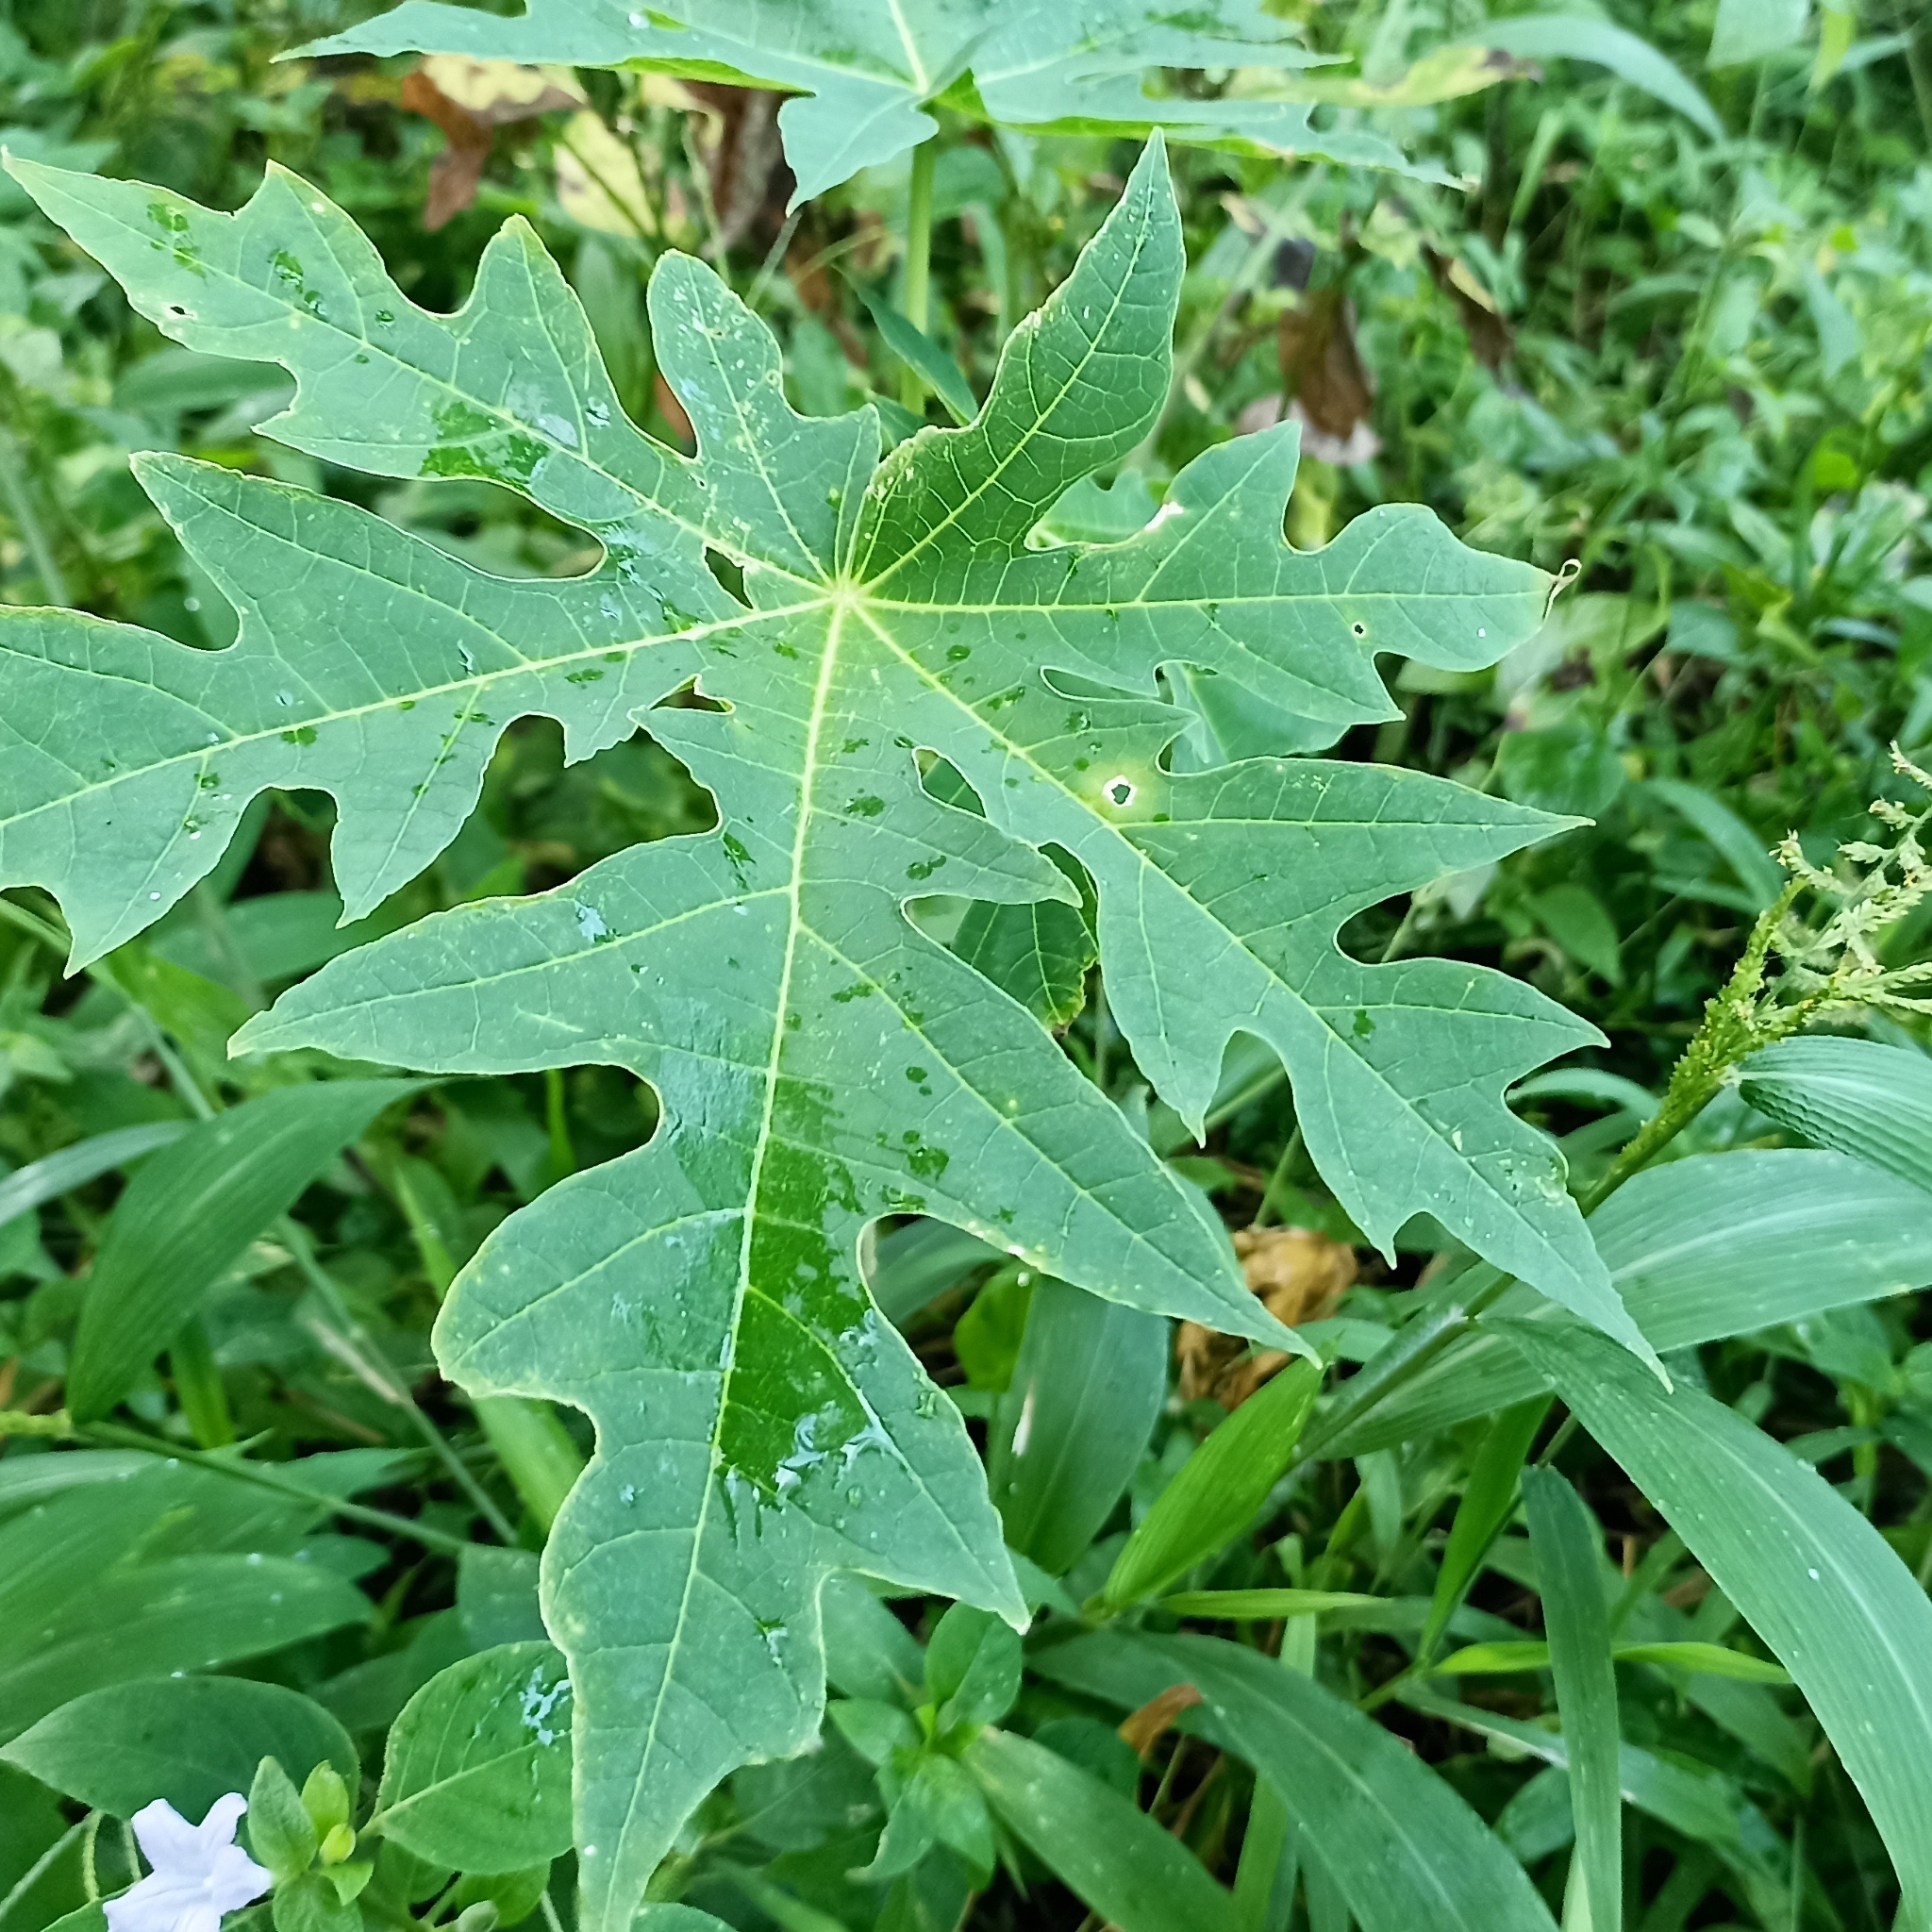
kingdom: Plantae
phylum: Tracheophyta
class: Magnoliopsida
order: Brassicales
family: Caricaceae
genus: Carica
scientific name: Carica papaya
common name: Papaya
